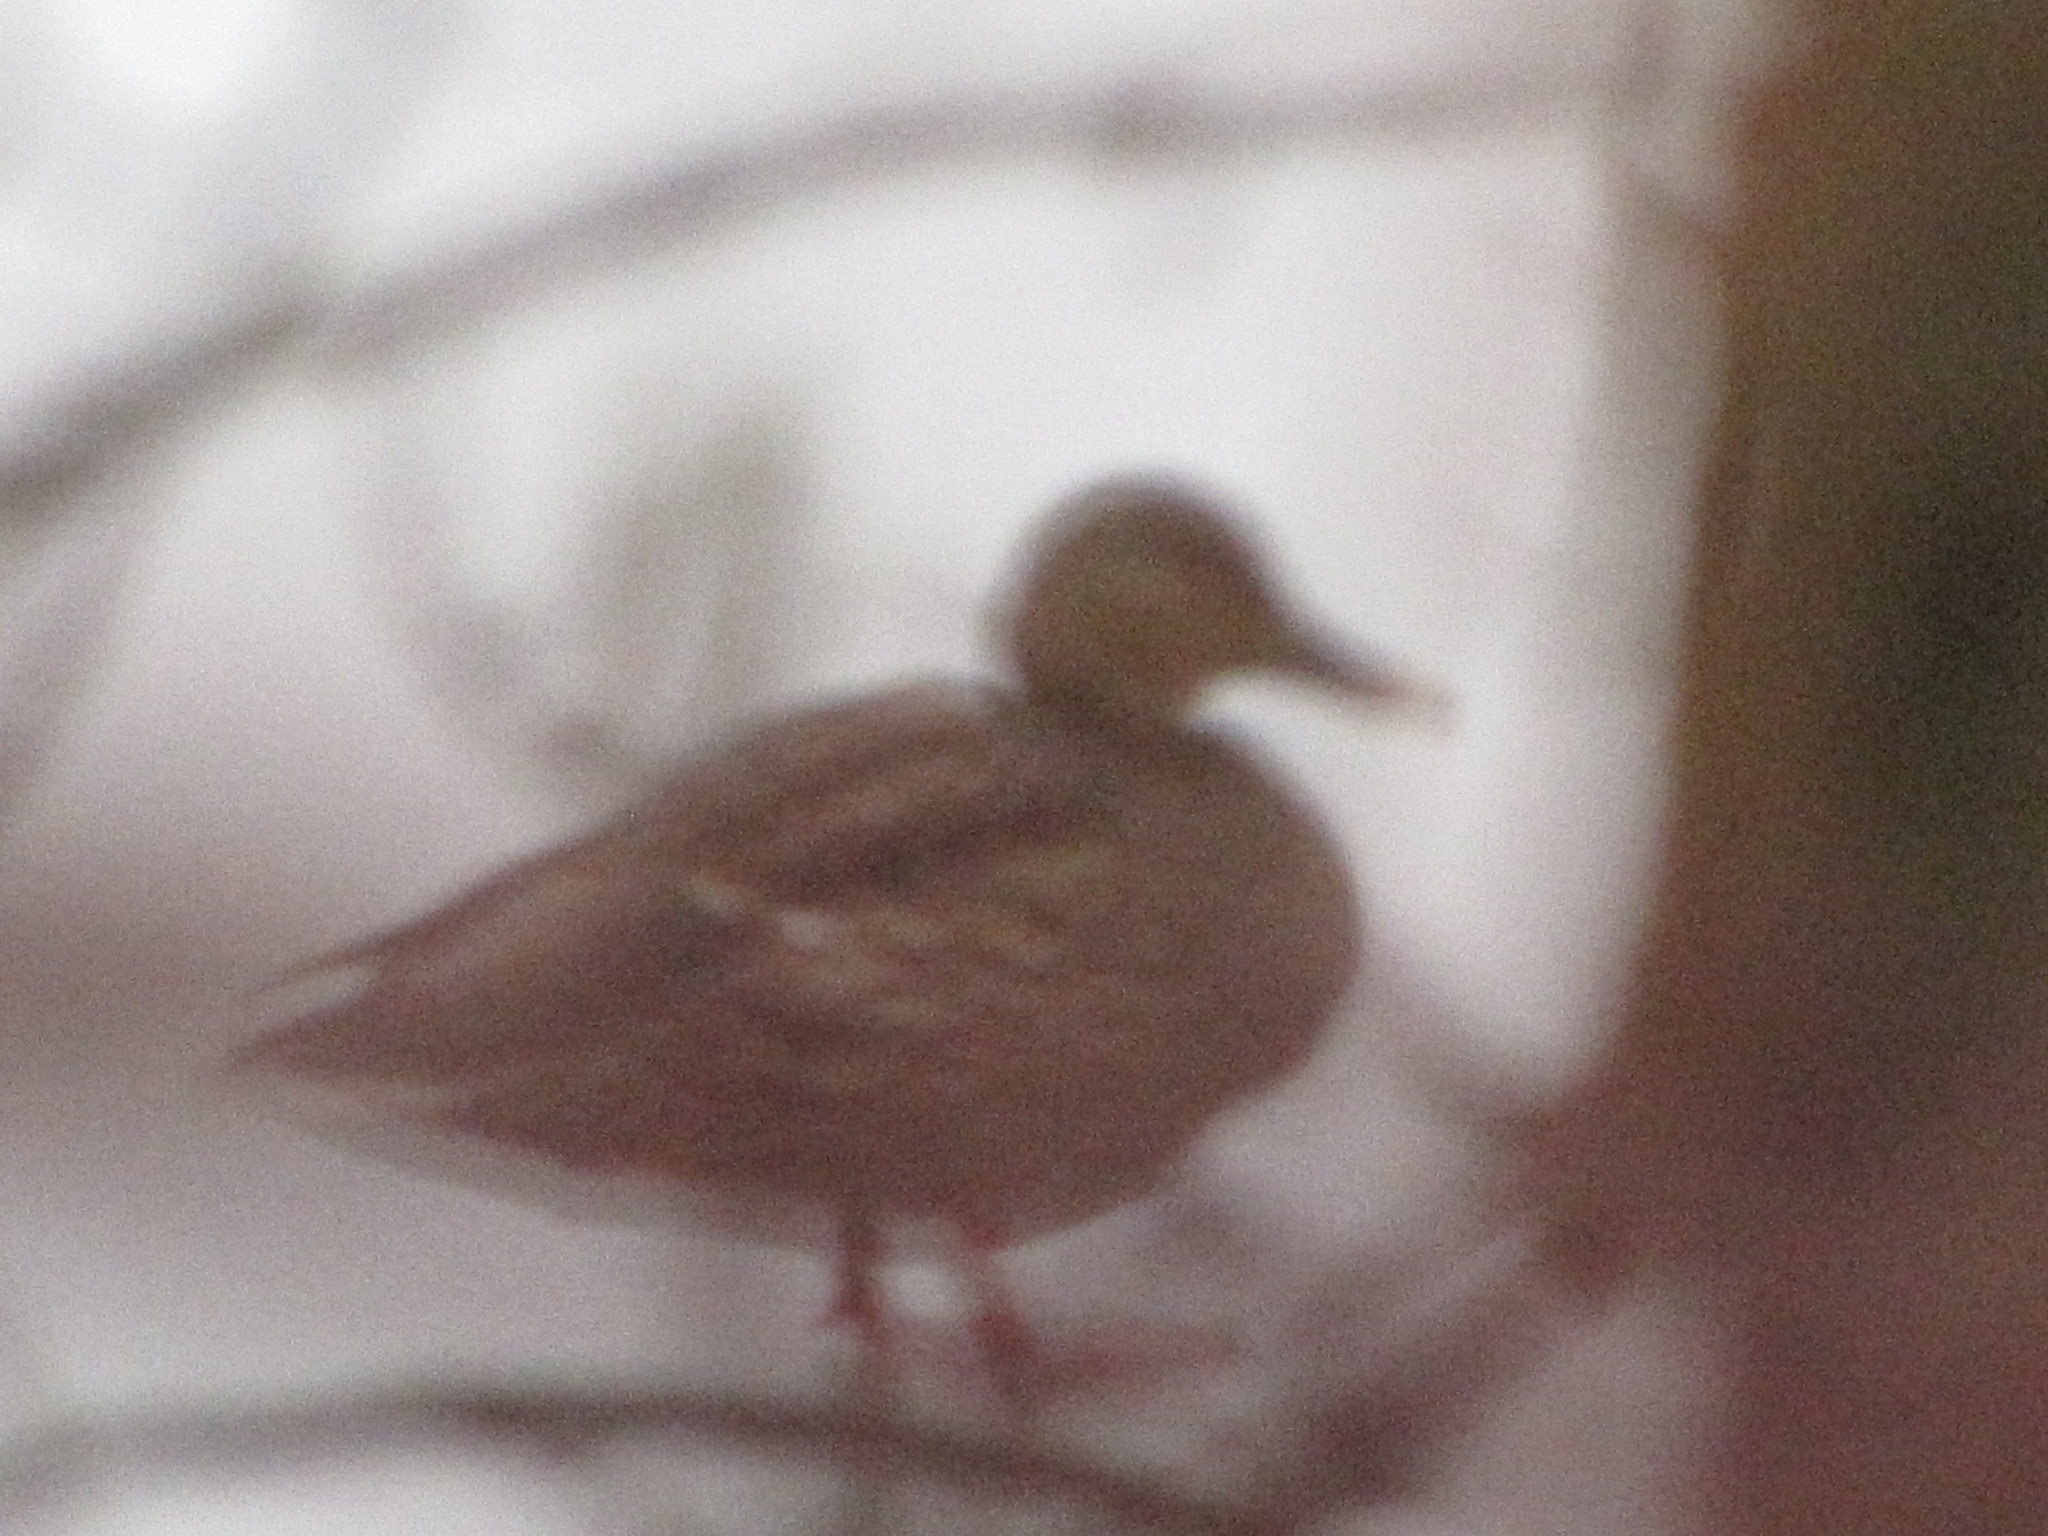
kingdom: Animalia
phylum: Chordata
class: Aves
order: Anseriformes
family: Anatidae
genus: Anas
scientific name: Anas platyrhynchos
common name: Mallard
